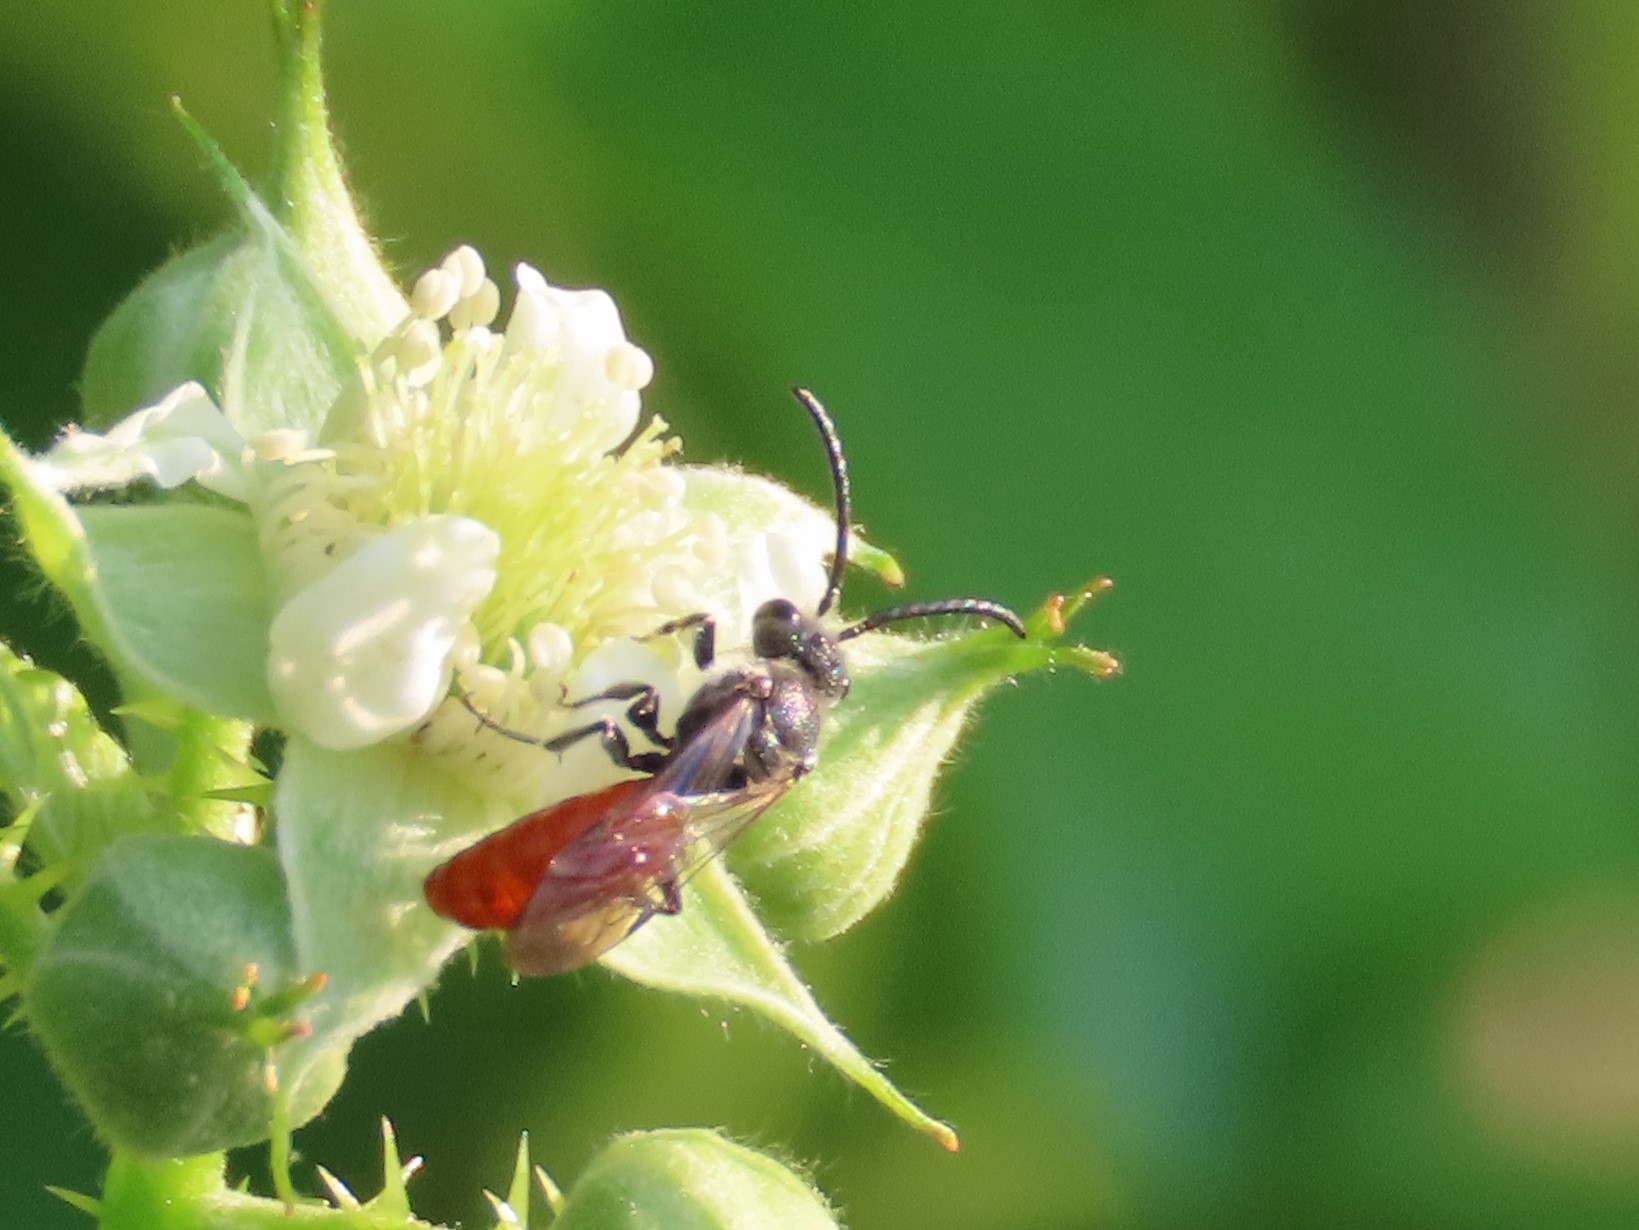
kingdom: Animalia
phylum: Arthropoda
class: Insecta
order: Hymenoptera
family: Halictidae
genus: Sphecodes
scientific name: Sphecodes aroniae
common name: Chokeberry cuckoo sweat bee
